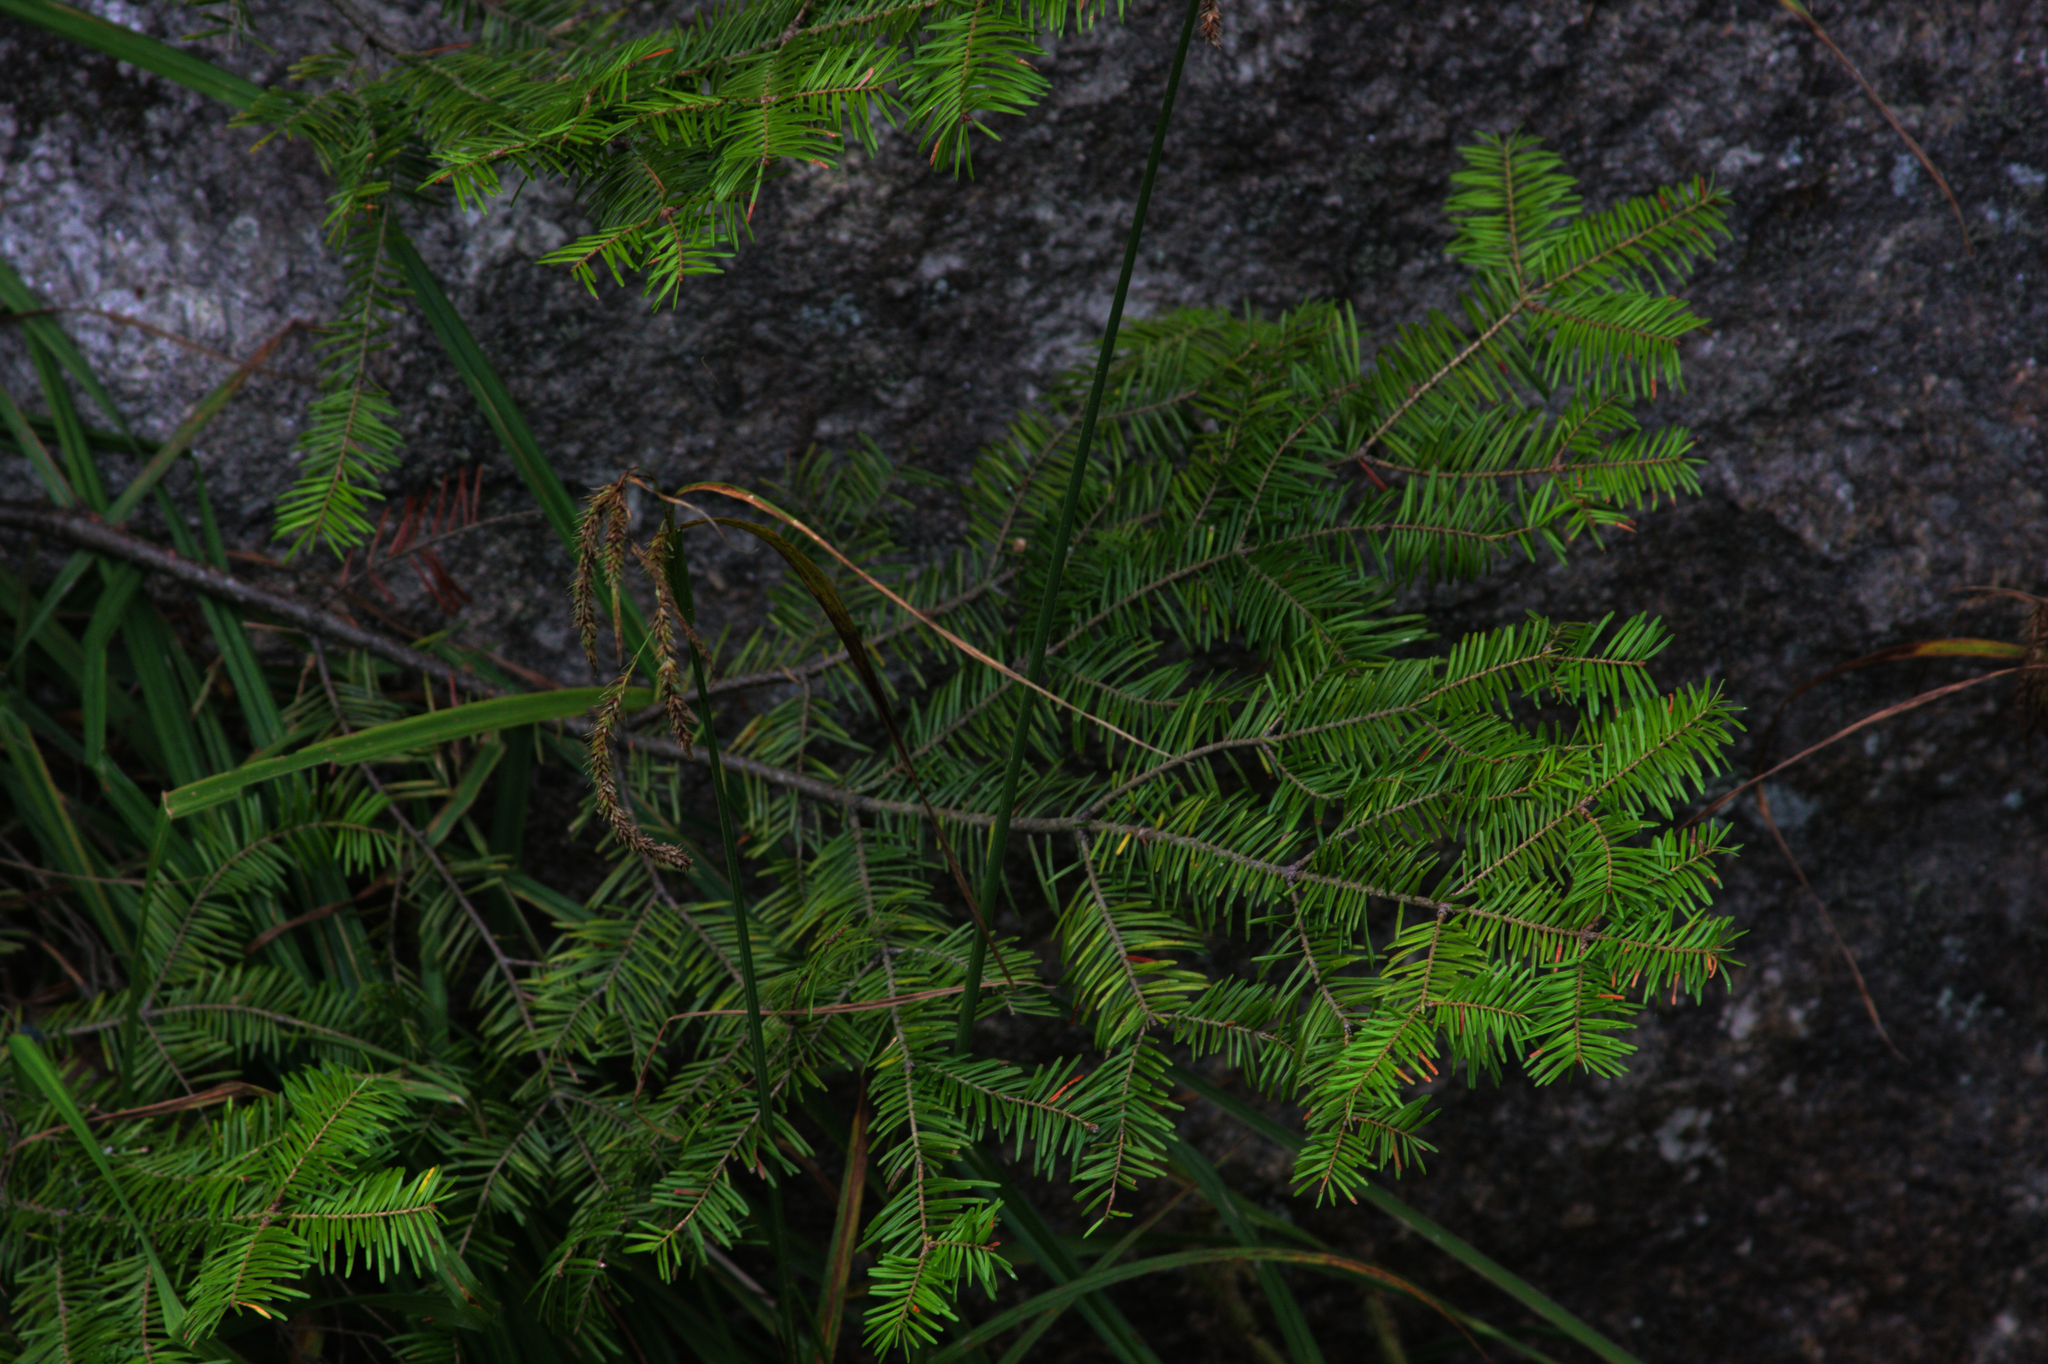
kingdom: Plantae
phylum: Tracheophyta
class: Pinopsida
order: Pinales
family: Pinaceae
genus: Abies
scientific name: Abies balsamea
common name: Balsam fir
